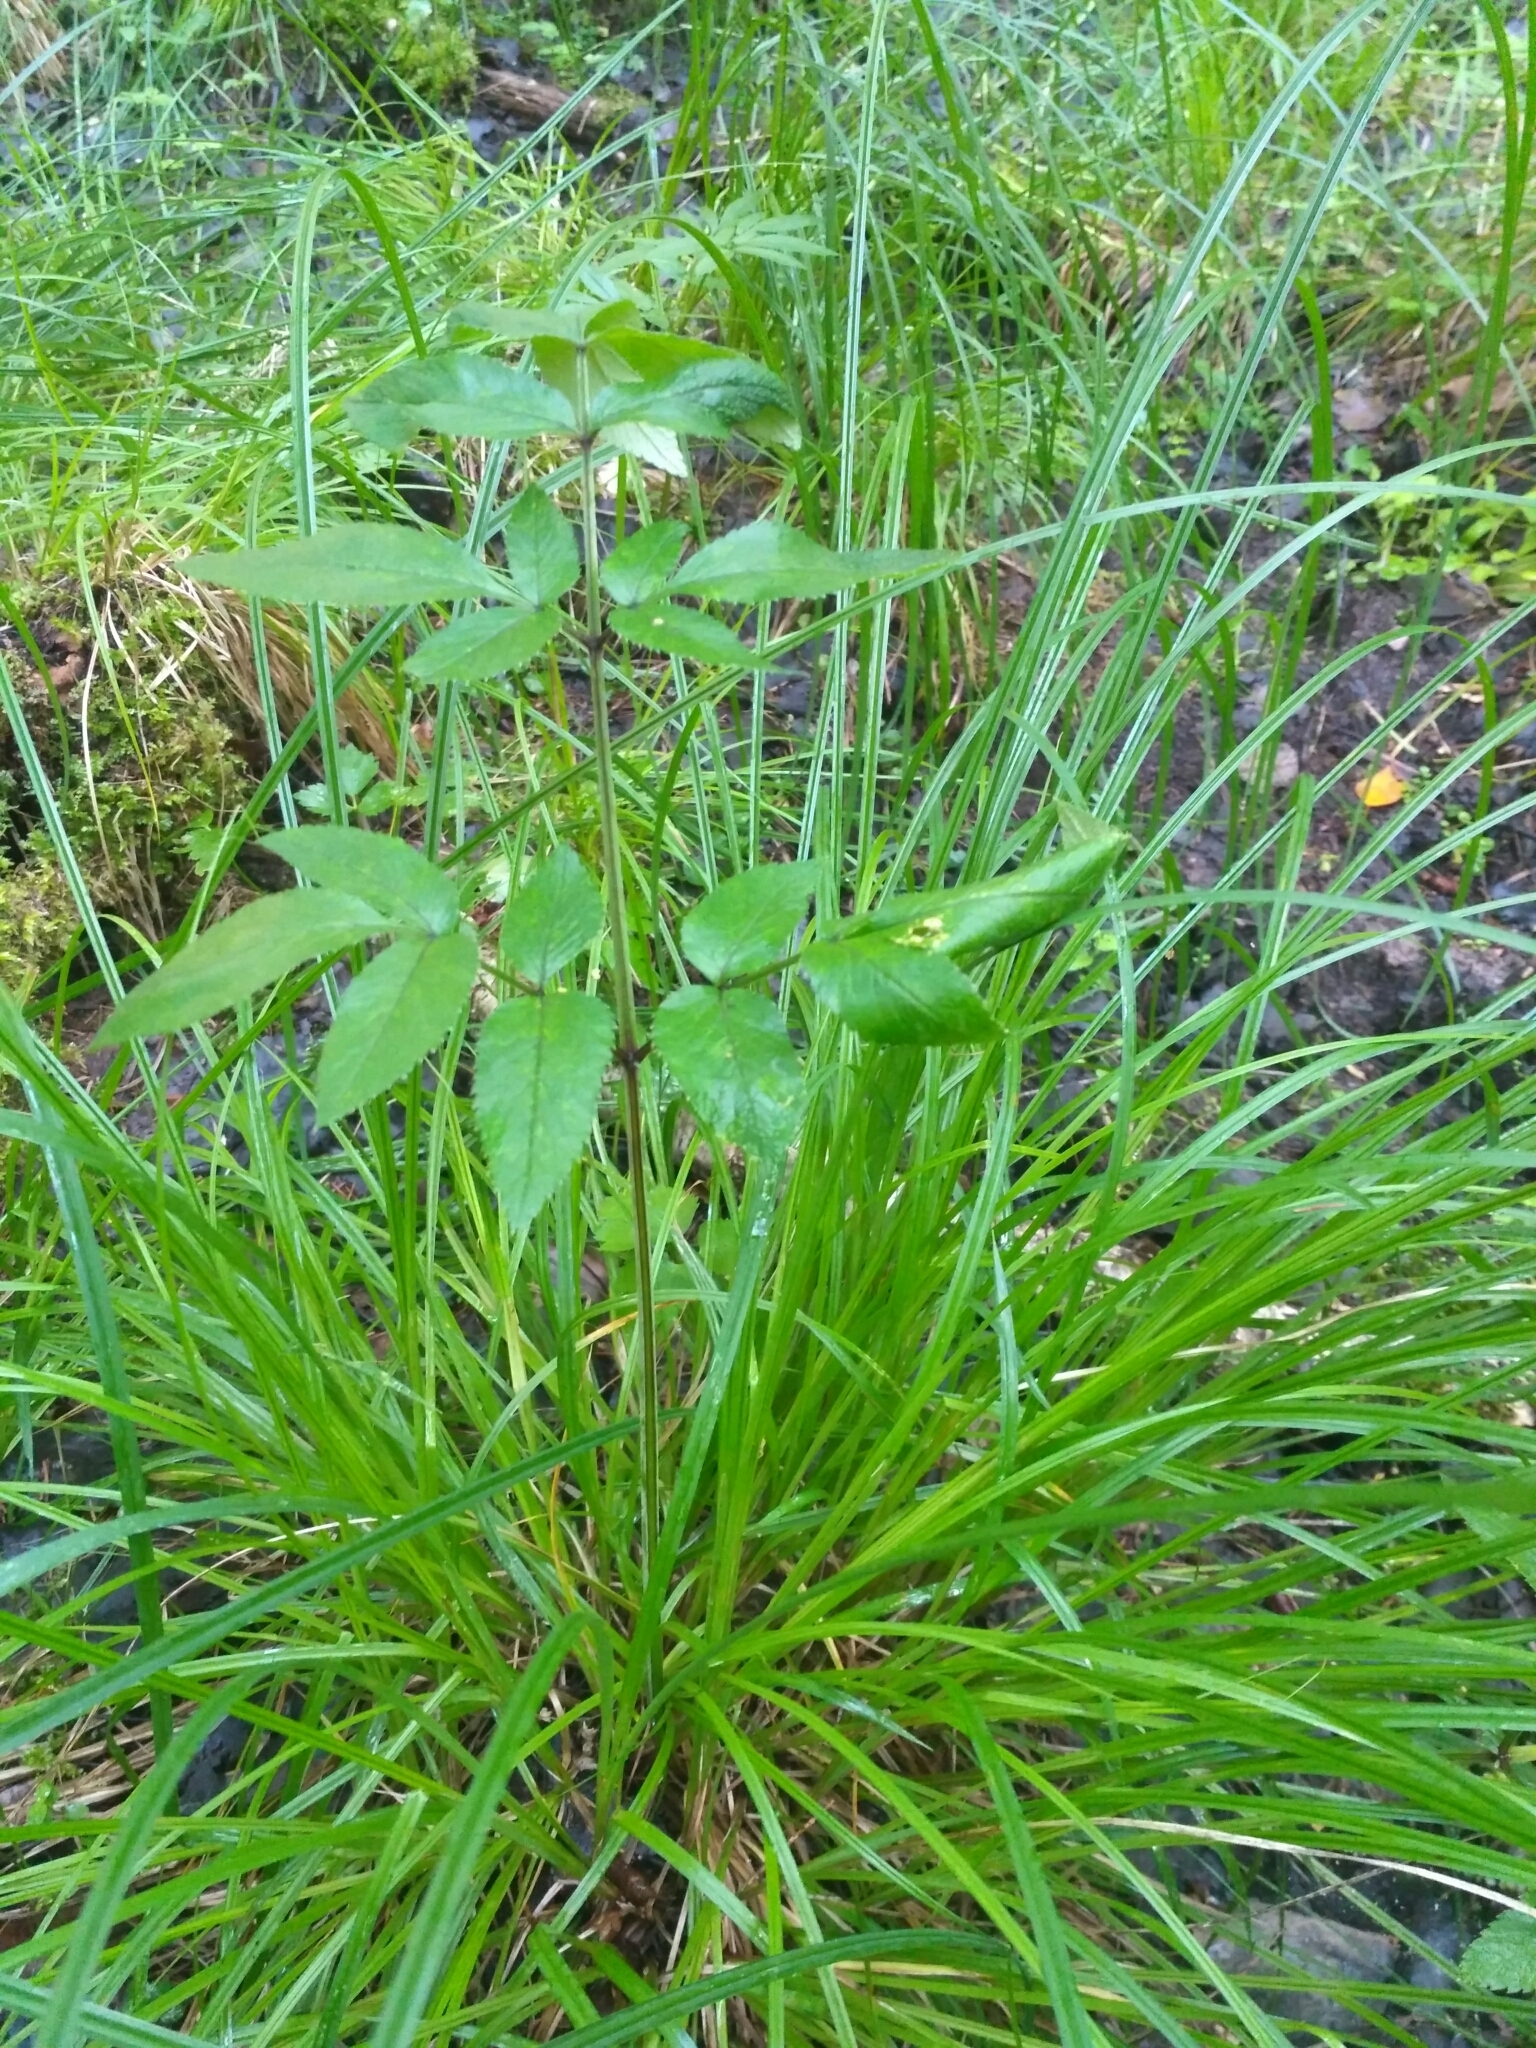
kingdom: Plantae
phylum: Tracheophyta
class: Magnoliopsida
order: Apiales
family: Apiaceae
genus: Angelica
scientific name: Angelica sylvestris
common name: Wild angelica
